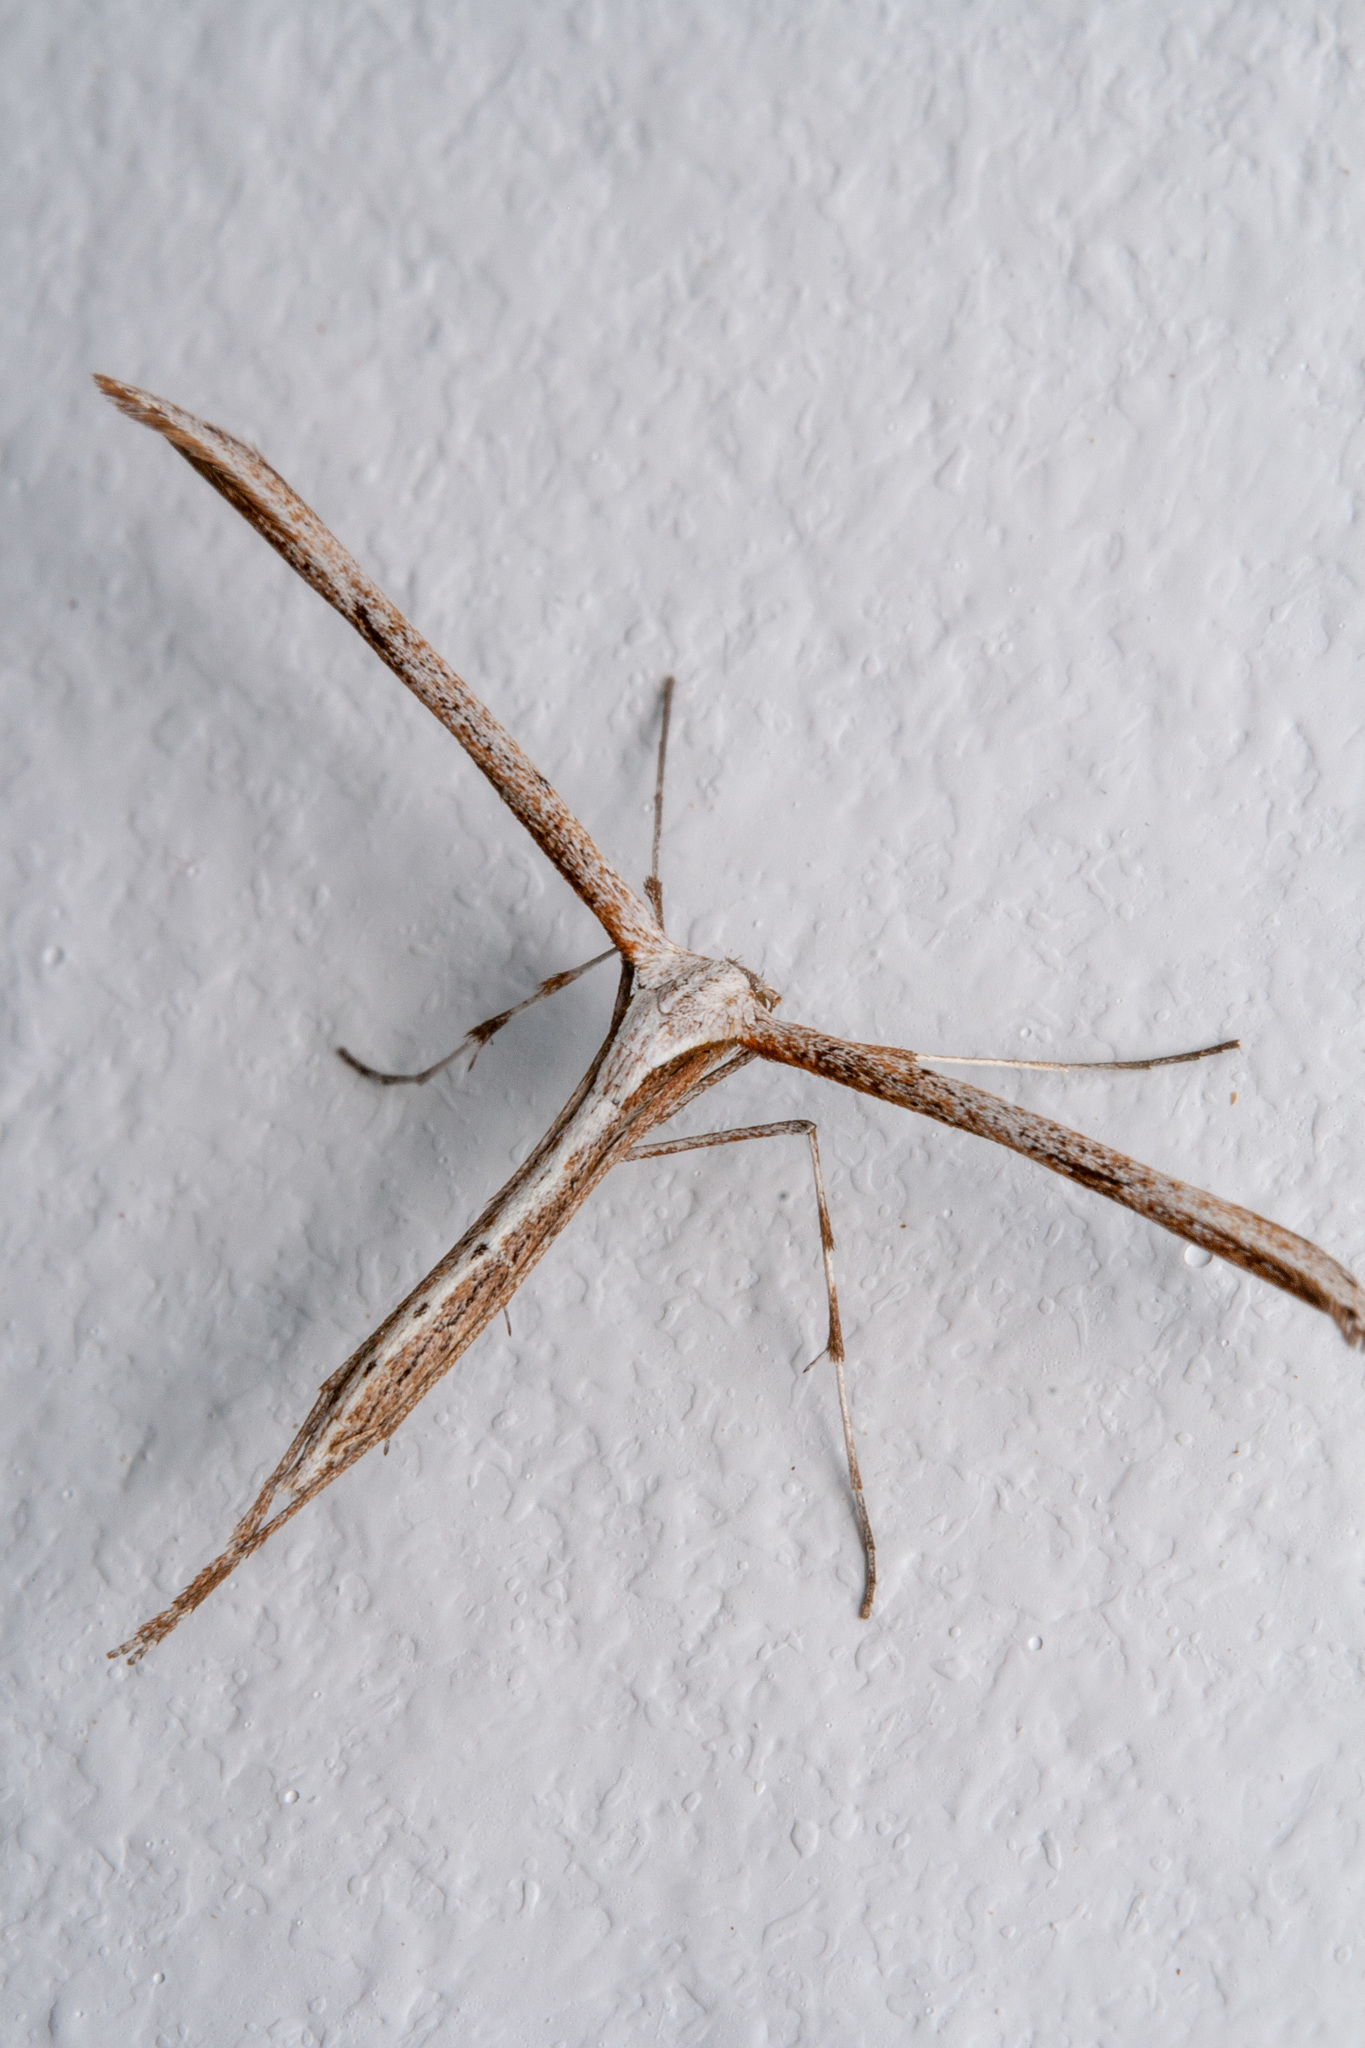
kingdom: Animalia
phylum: Arthropoda
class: Insecta
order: Lepidoptera
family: Pterophoridae
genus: Emmelina
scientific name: Emmelina monodactyla
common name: Common plume
